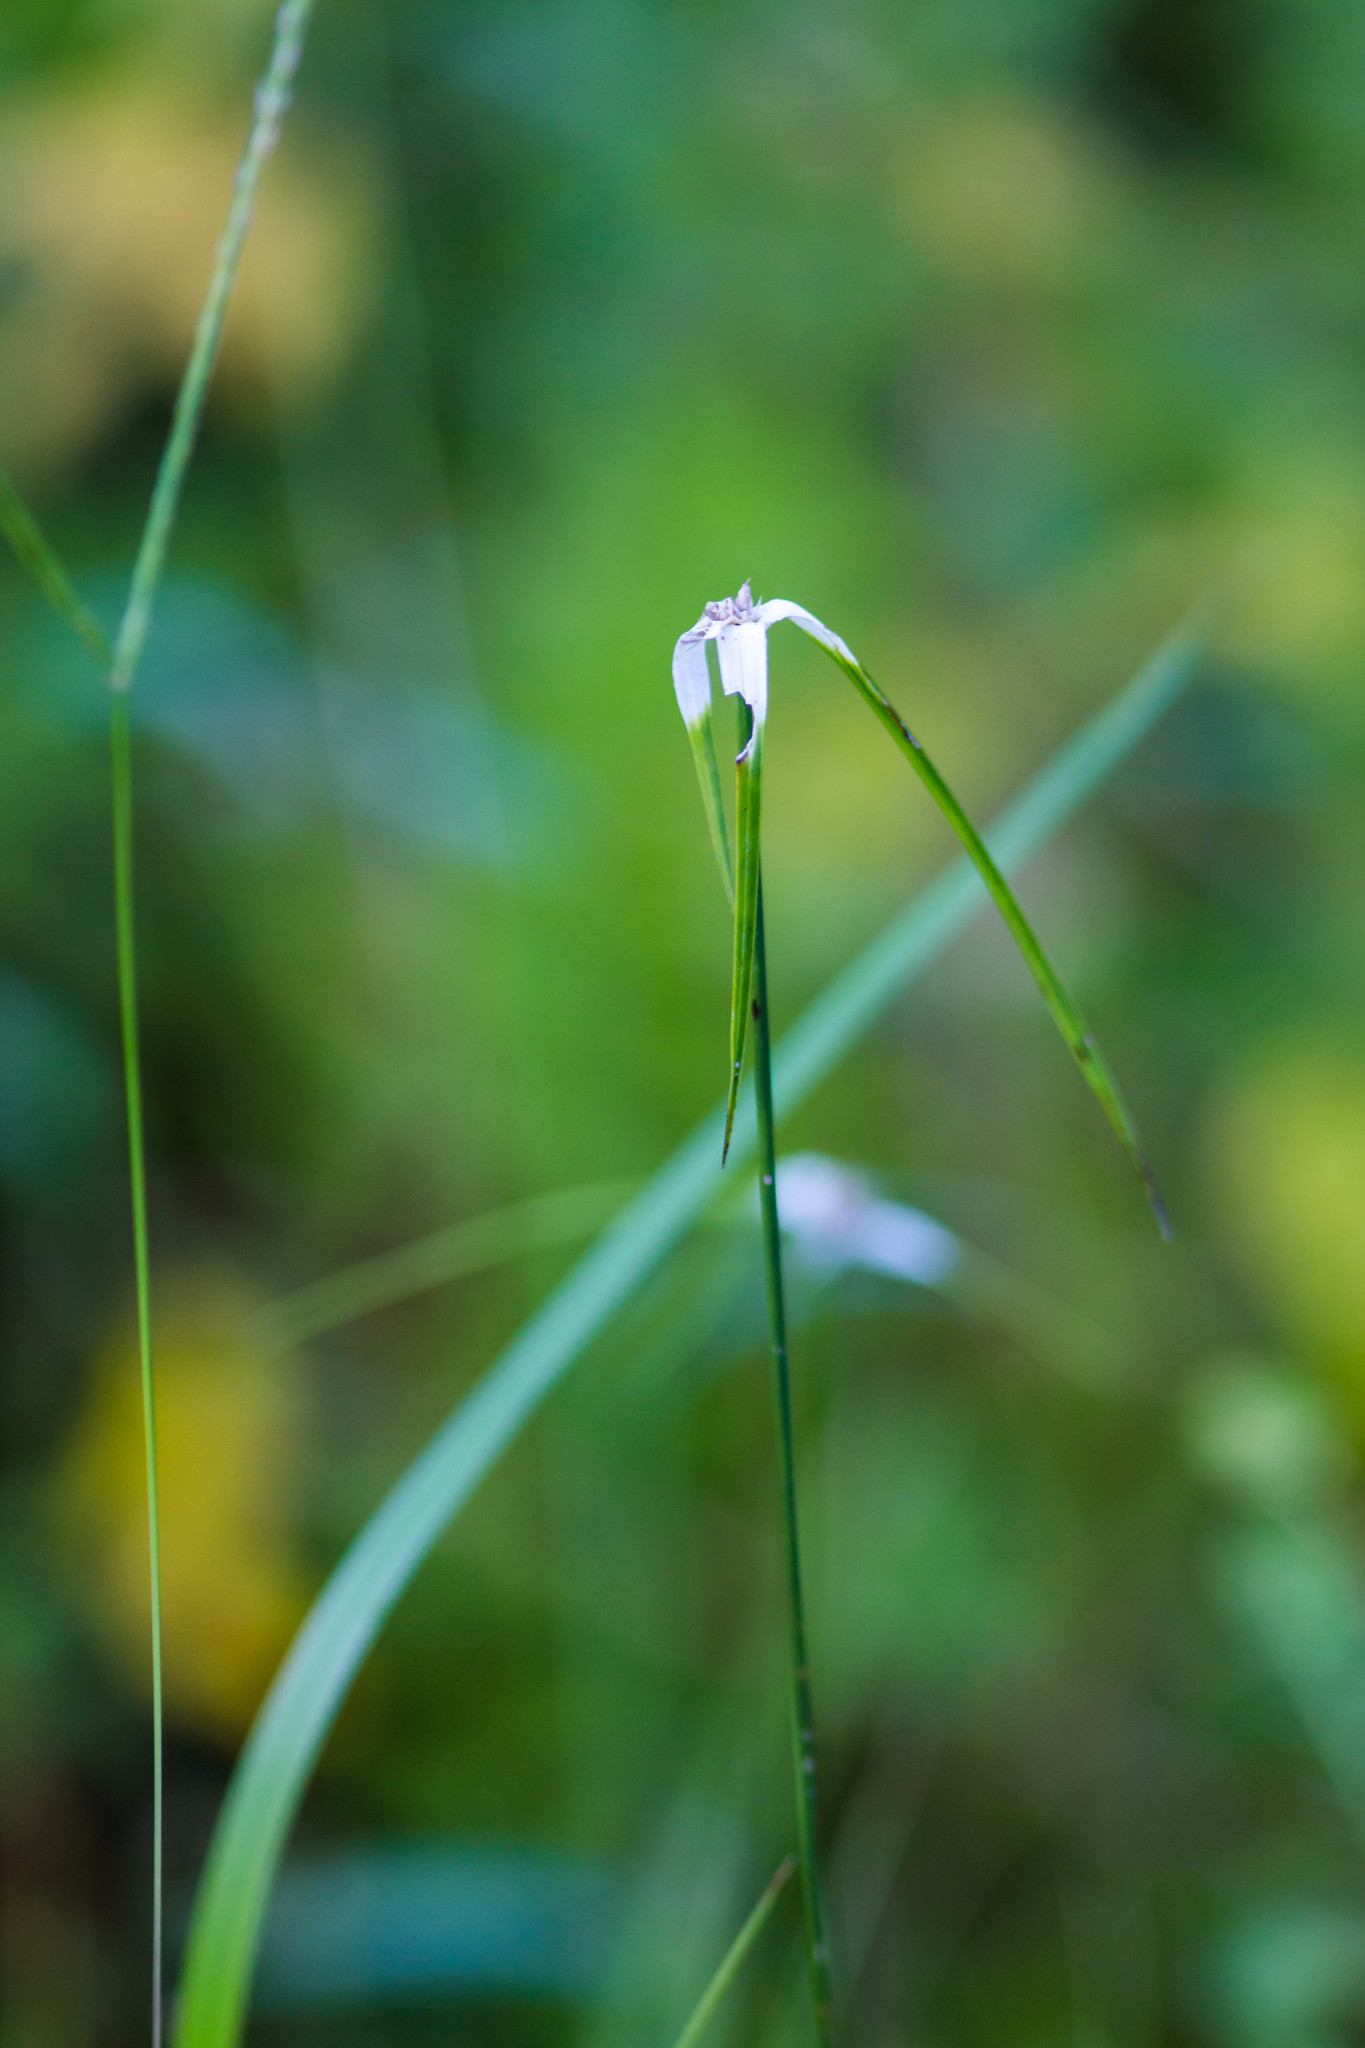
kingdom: Plantae
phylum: Tracheophyta
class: Liliopsida
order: Poales
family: Cyperaceae
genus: Rhynchospora
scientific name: Rhynchospora colorata
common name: Star sedge
